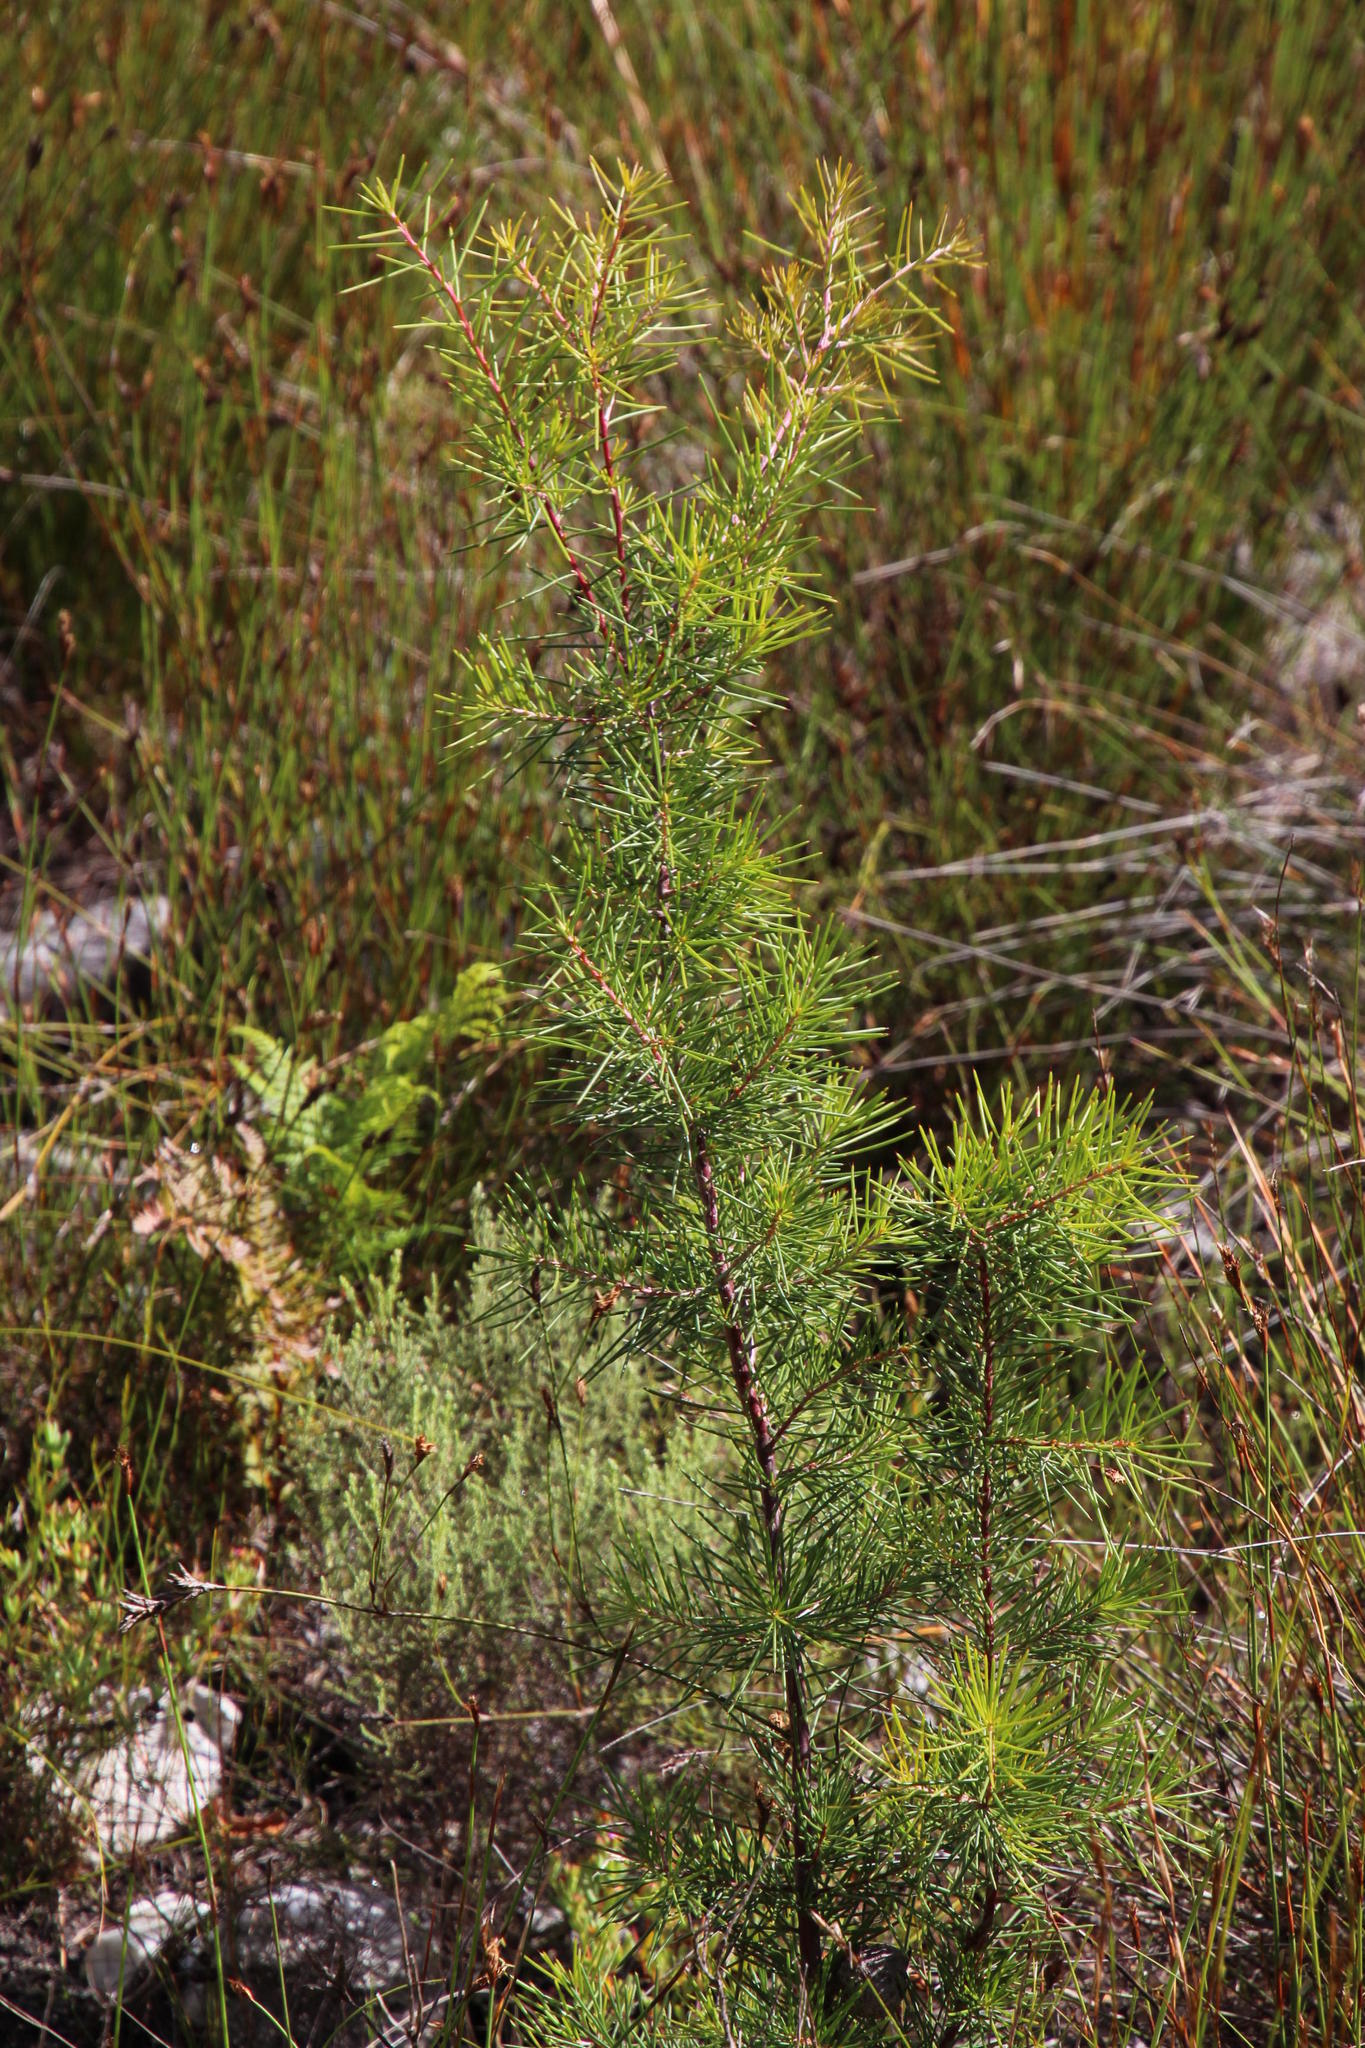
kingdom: Plantae
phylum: Tracheophyta
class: Magnoliopsida
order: Proteales
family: Proteaceae
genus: Hakea
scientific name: Hakea sericea
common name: Needle bush
